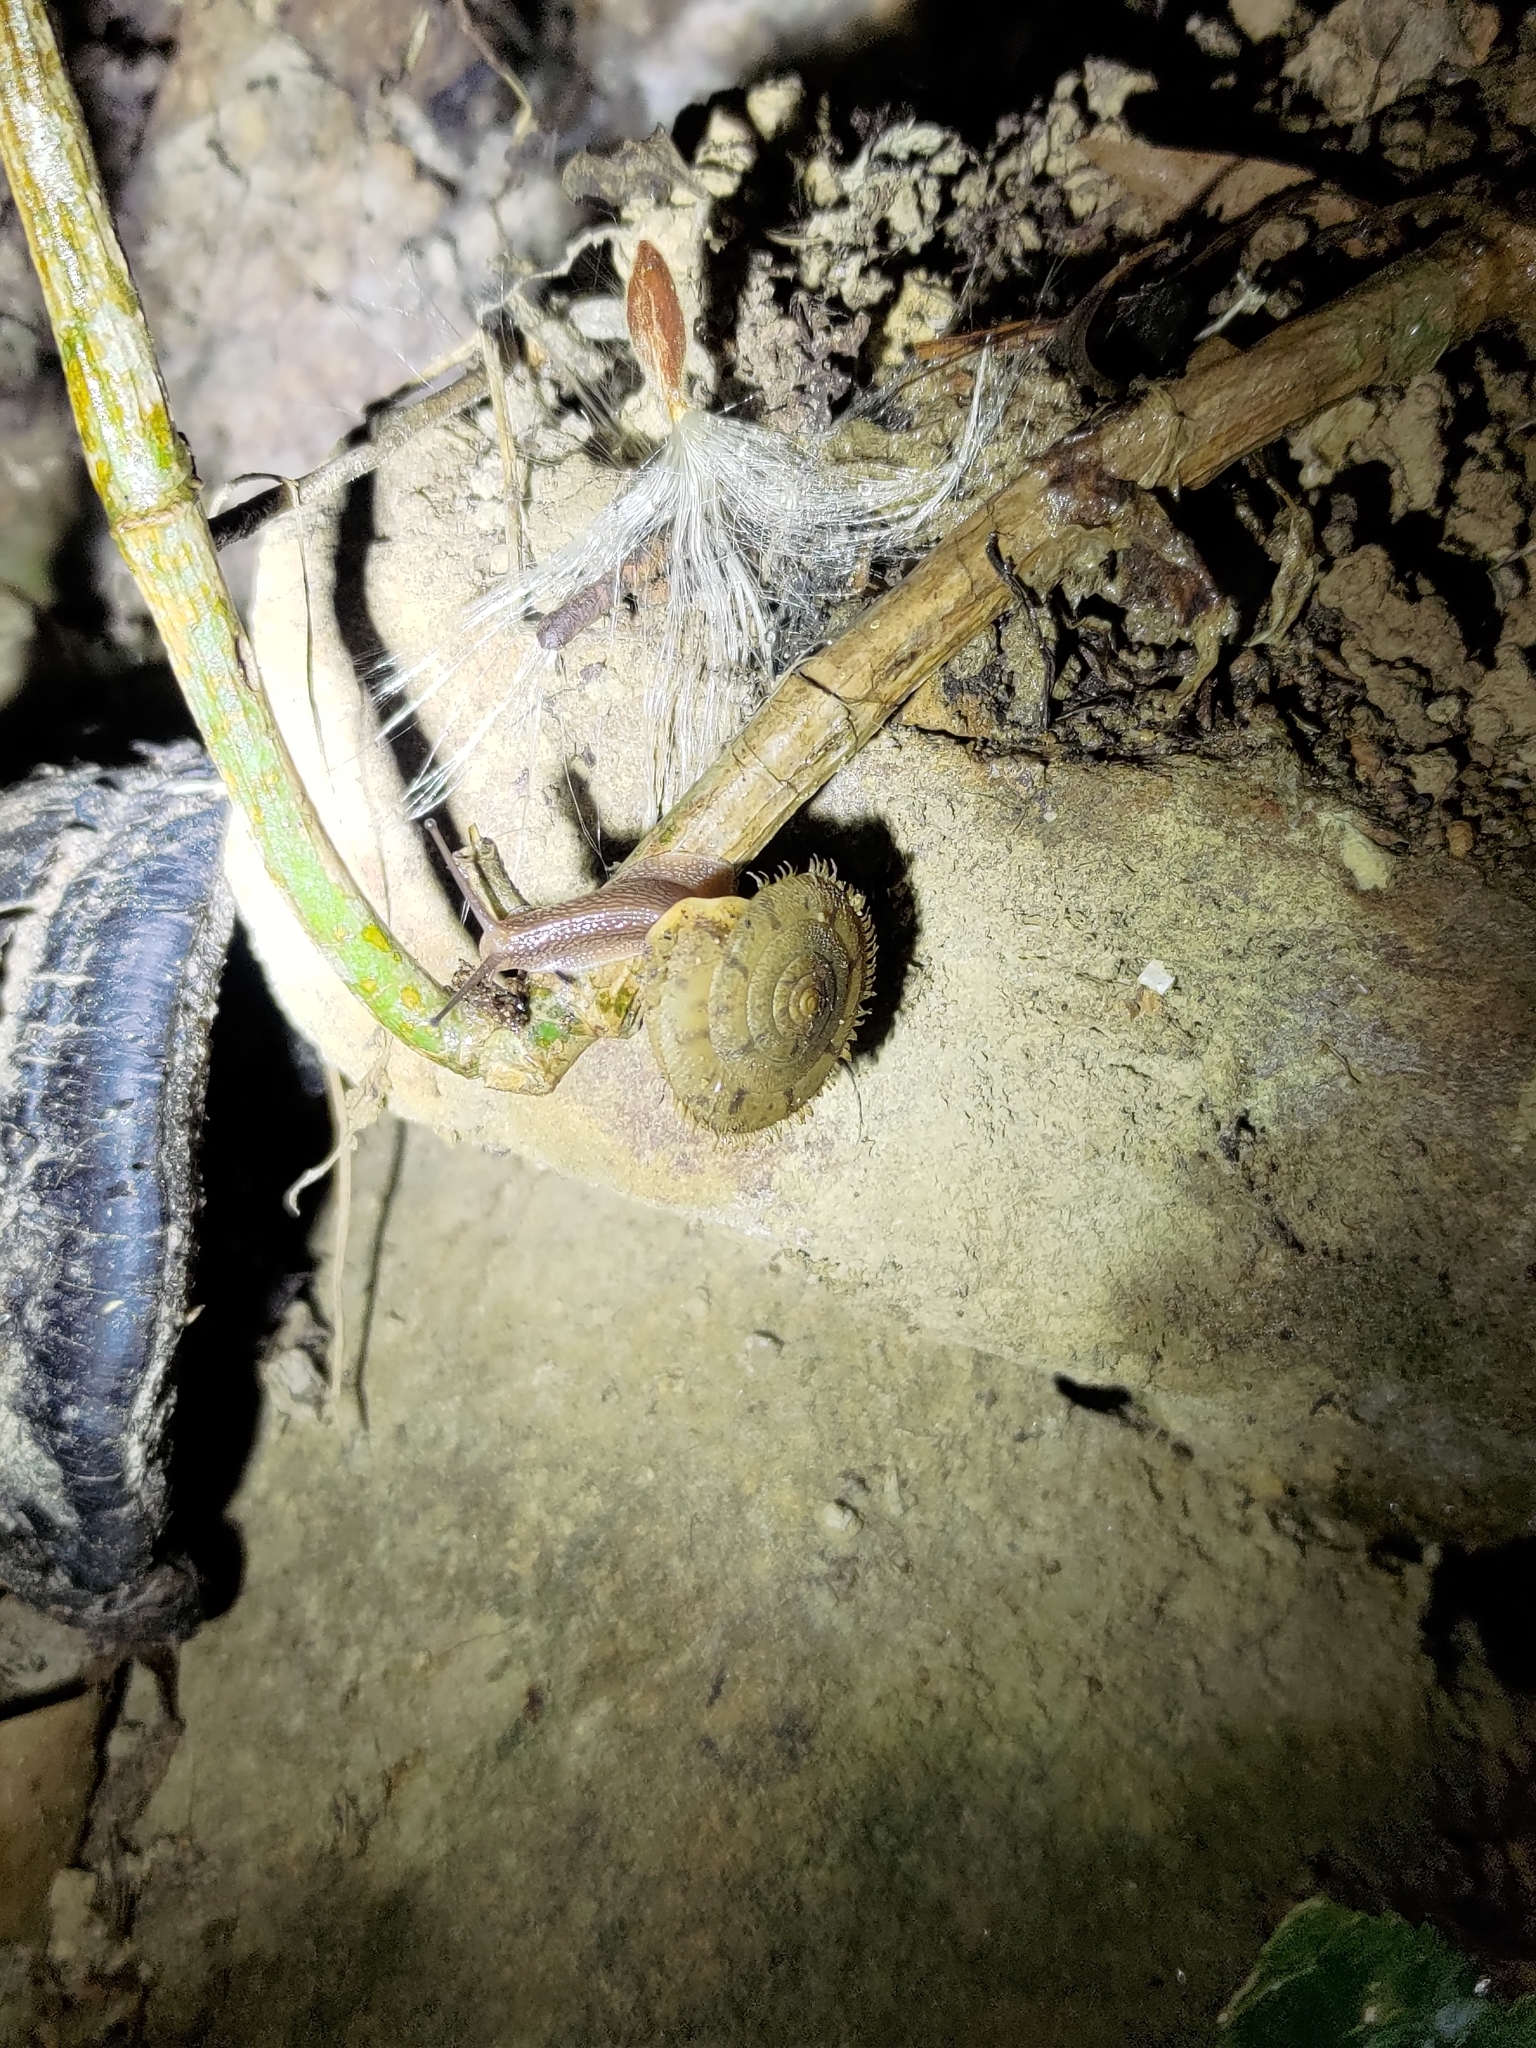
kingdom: Animalia
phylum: Mollusca
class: Gastropoda
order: Stylommatophora
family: Camaenidae
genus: Plectotropis
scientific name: Plectotropis mackensii
